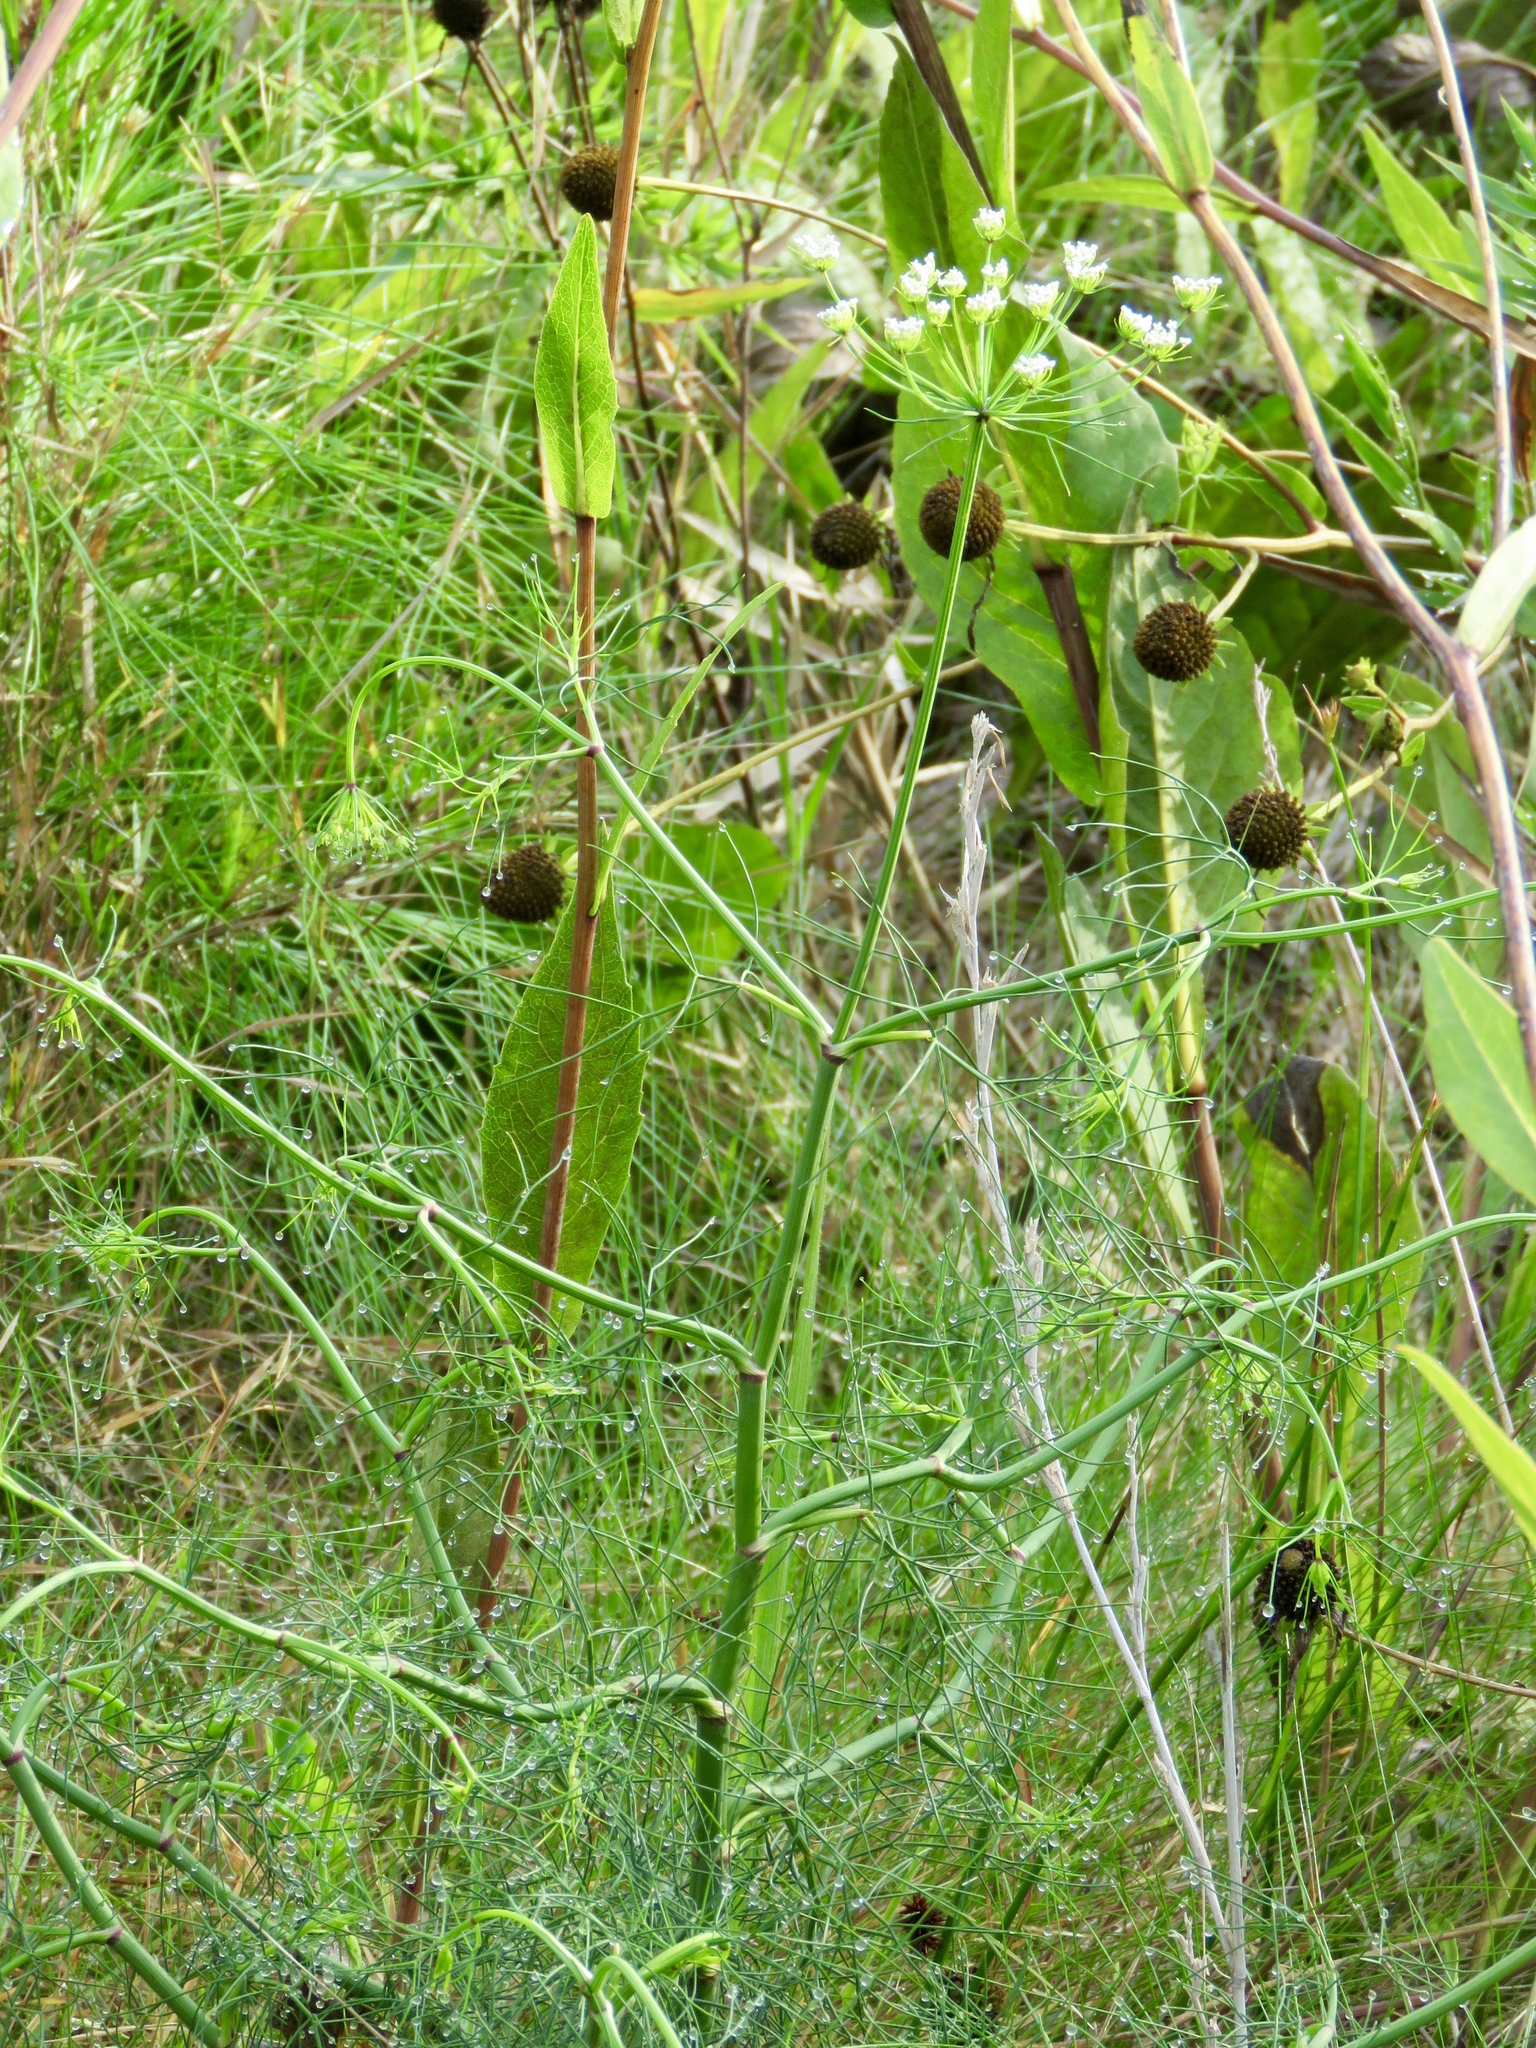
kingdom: Plantae
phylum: Tracheophyta
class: Magnoliopsida
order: Apiales
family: Apiaceae
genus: Ptilimnium
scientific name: Ptilimnium costatum
